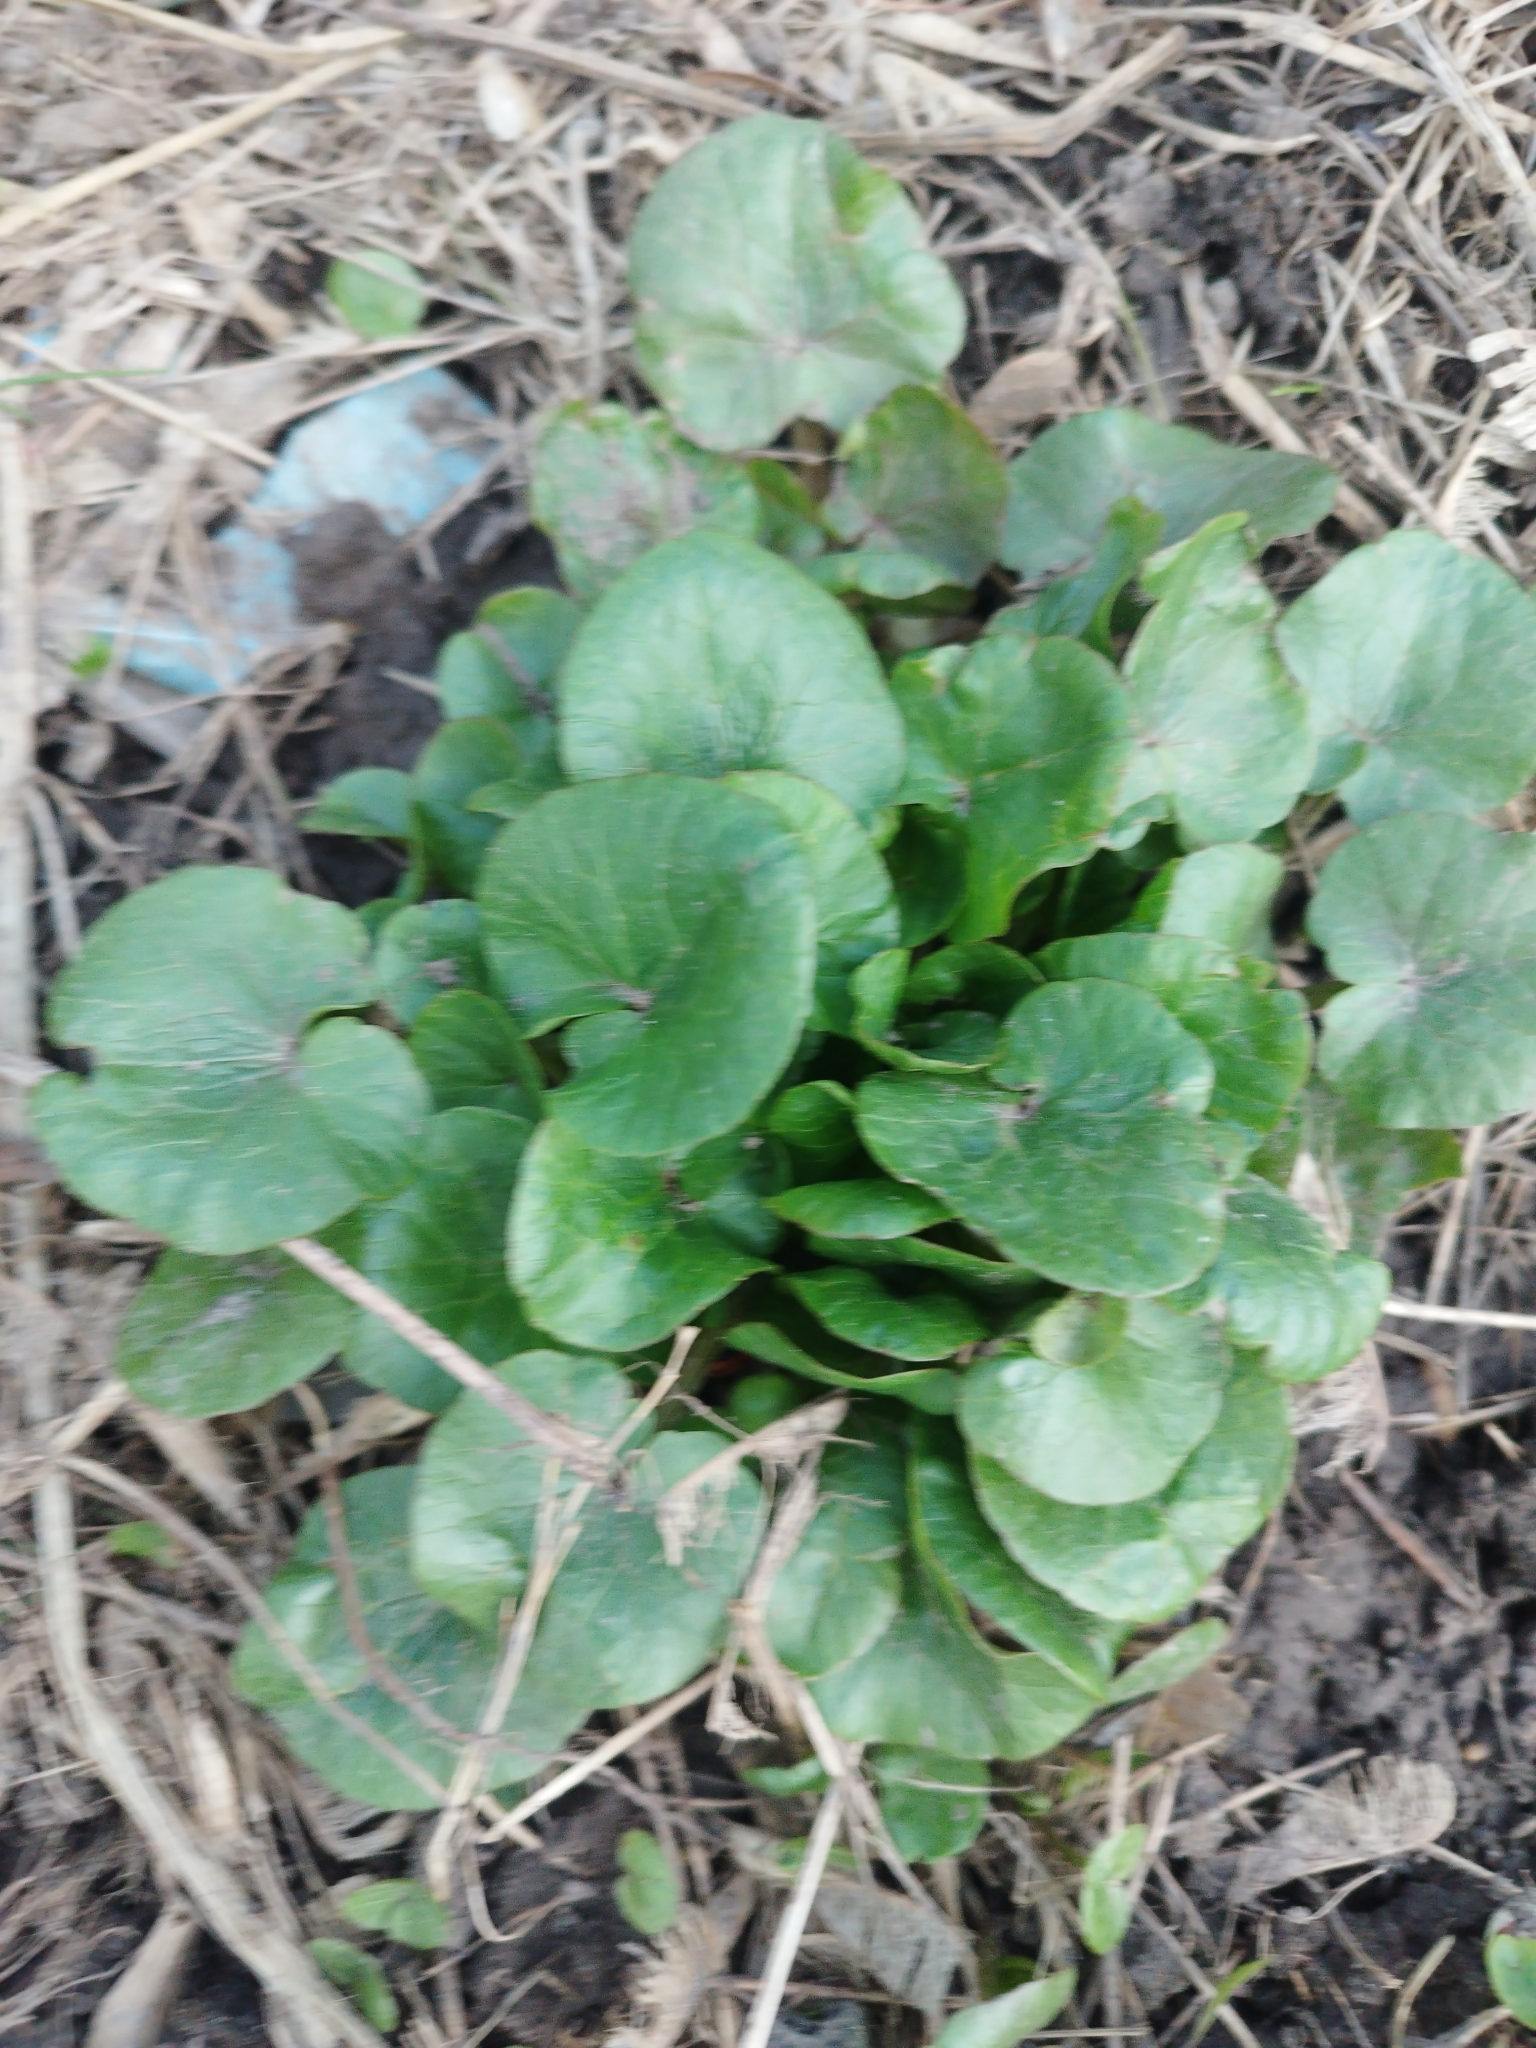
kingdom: Plantae
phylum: Tracheophyta
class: Magnoliopsida
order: Ranunculales
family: Ranunculaceae
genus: Ficaria
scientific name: Ficaria verna
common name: Lesser celandine
